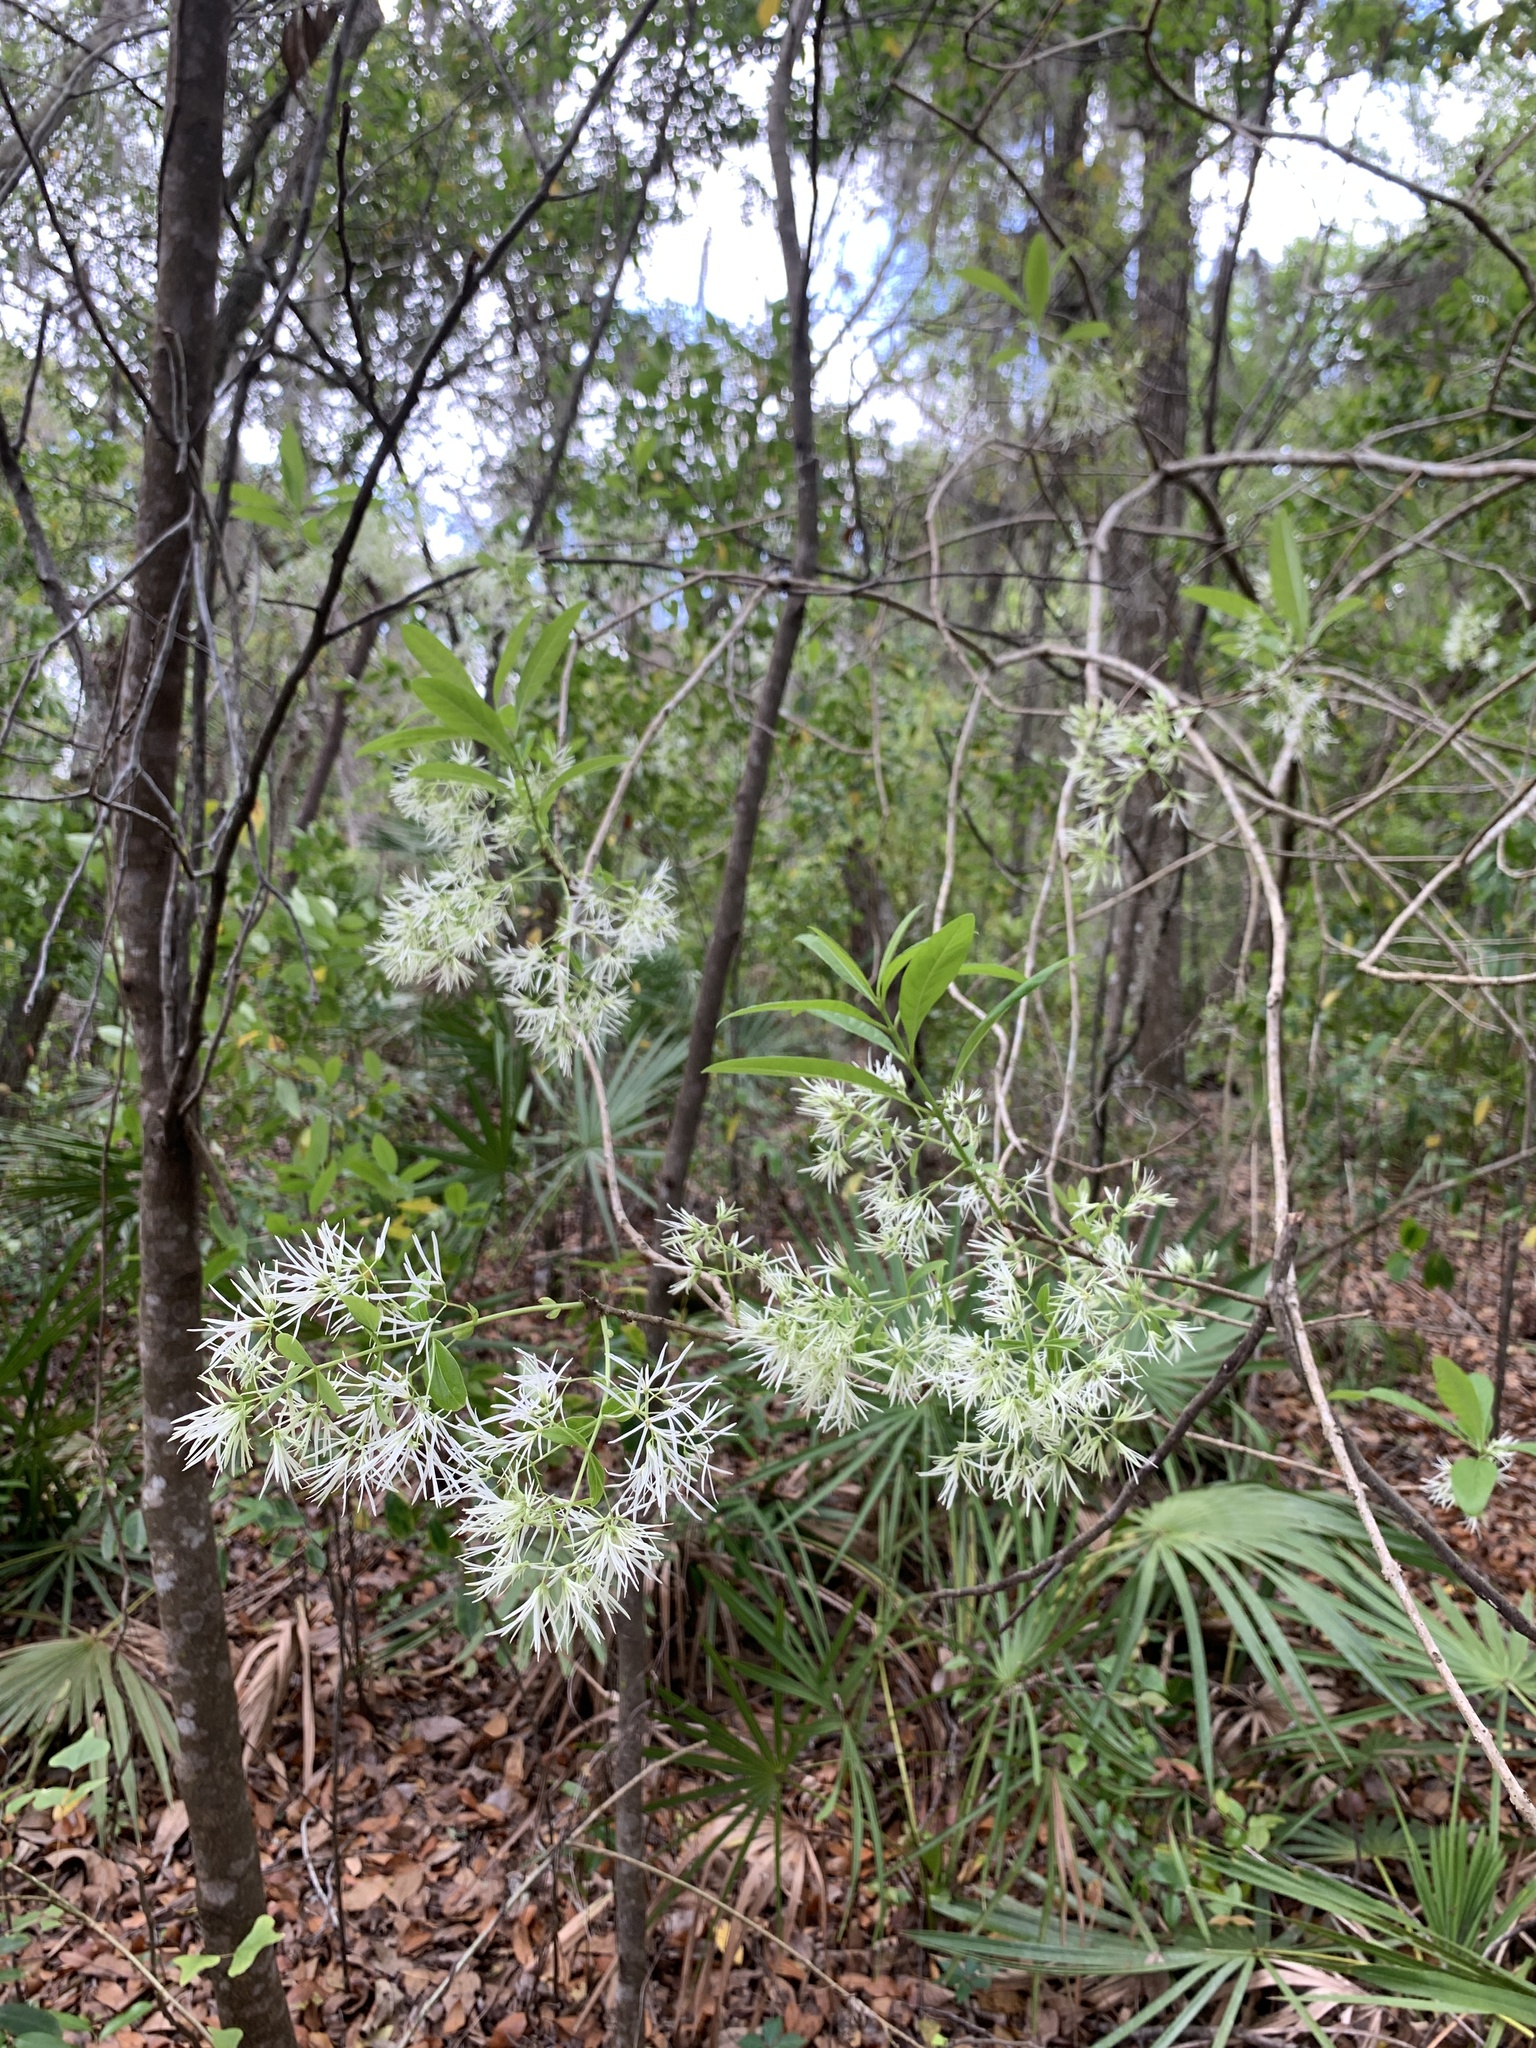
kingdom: Plantae
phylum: Tracheophyta
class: Magnoliopsida
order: Lamiales
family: Oleaceae
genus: Chionanthus
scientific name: Chionanthus virginicus
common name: American fringetree
